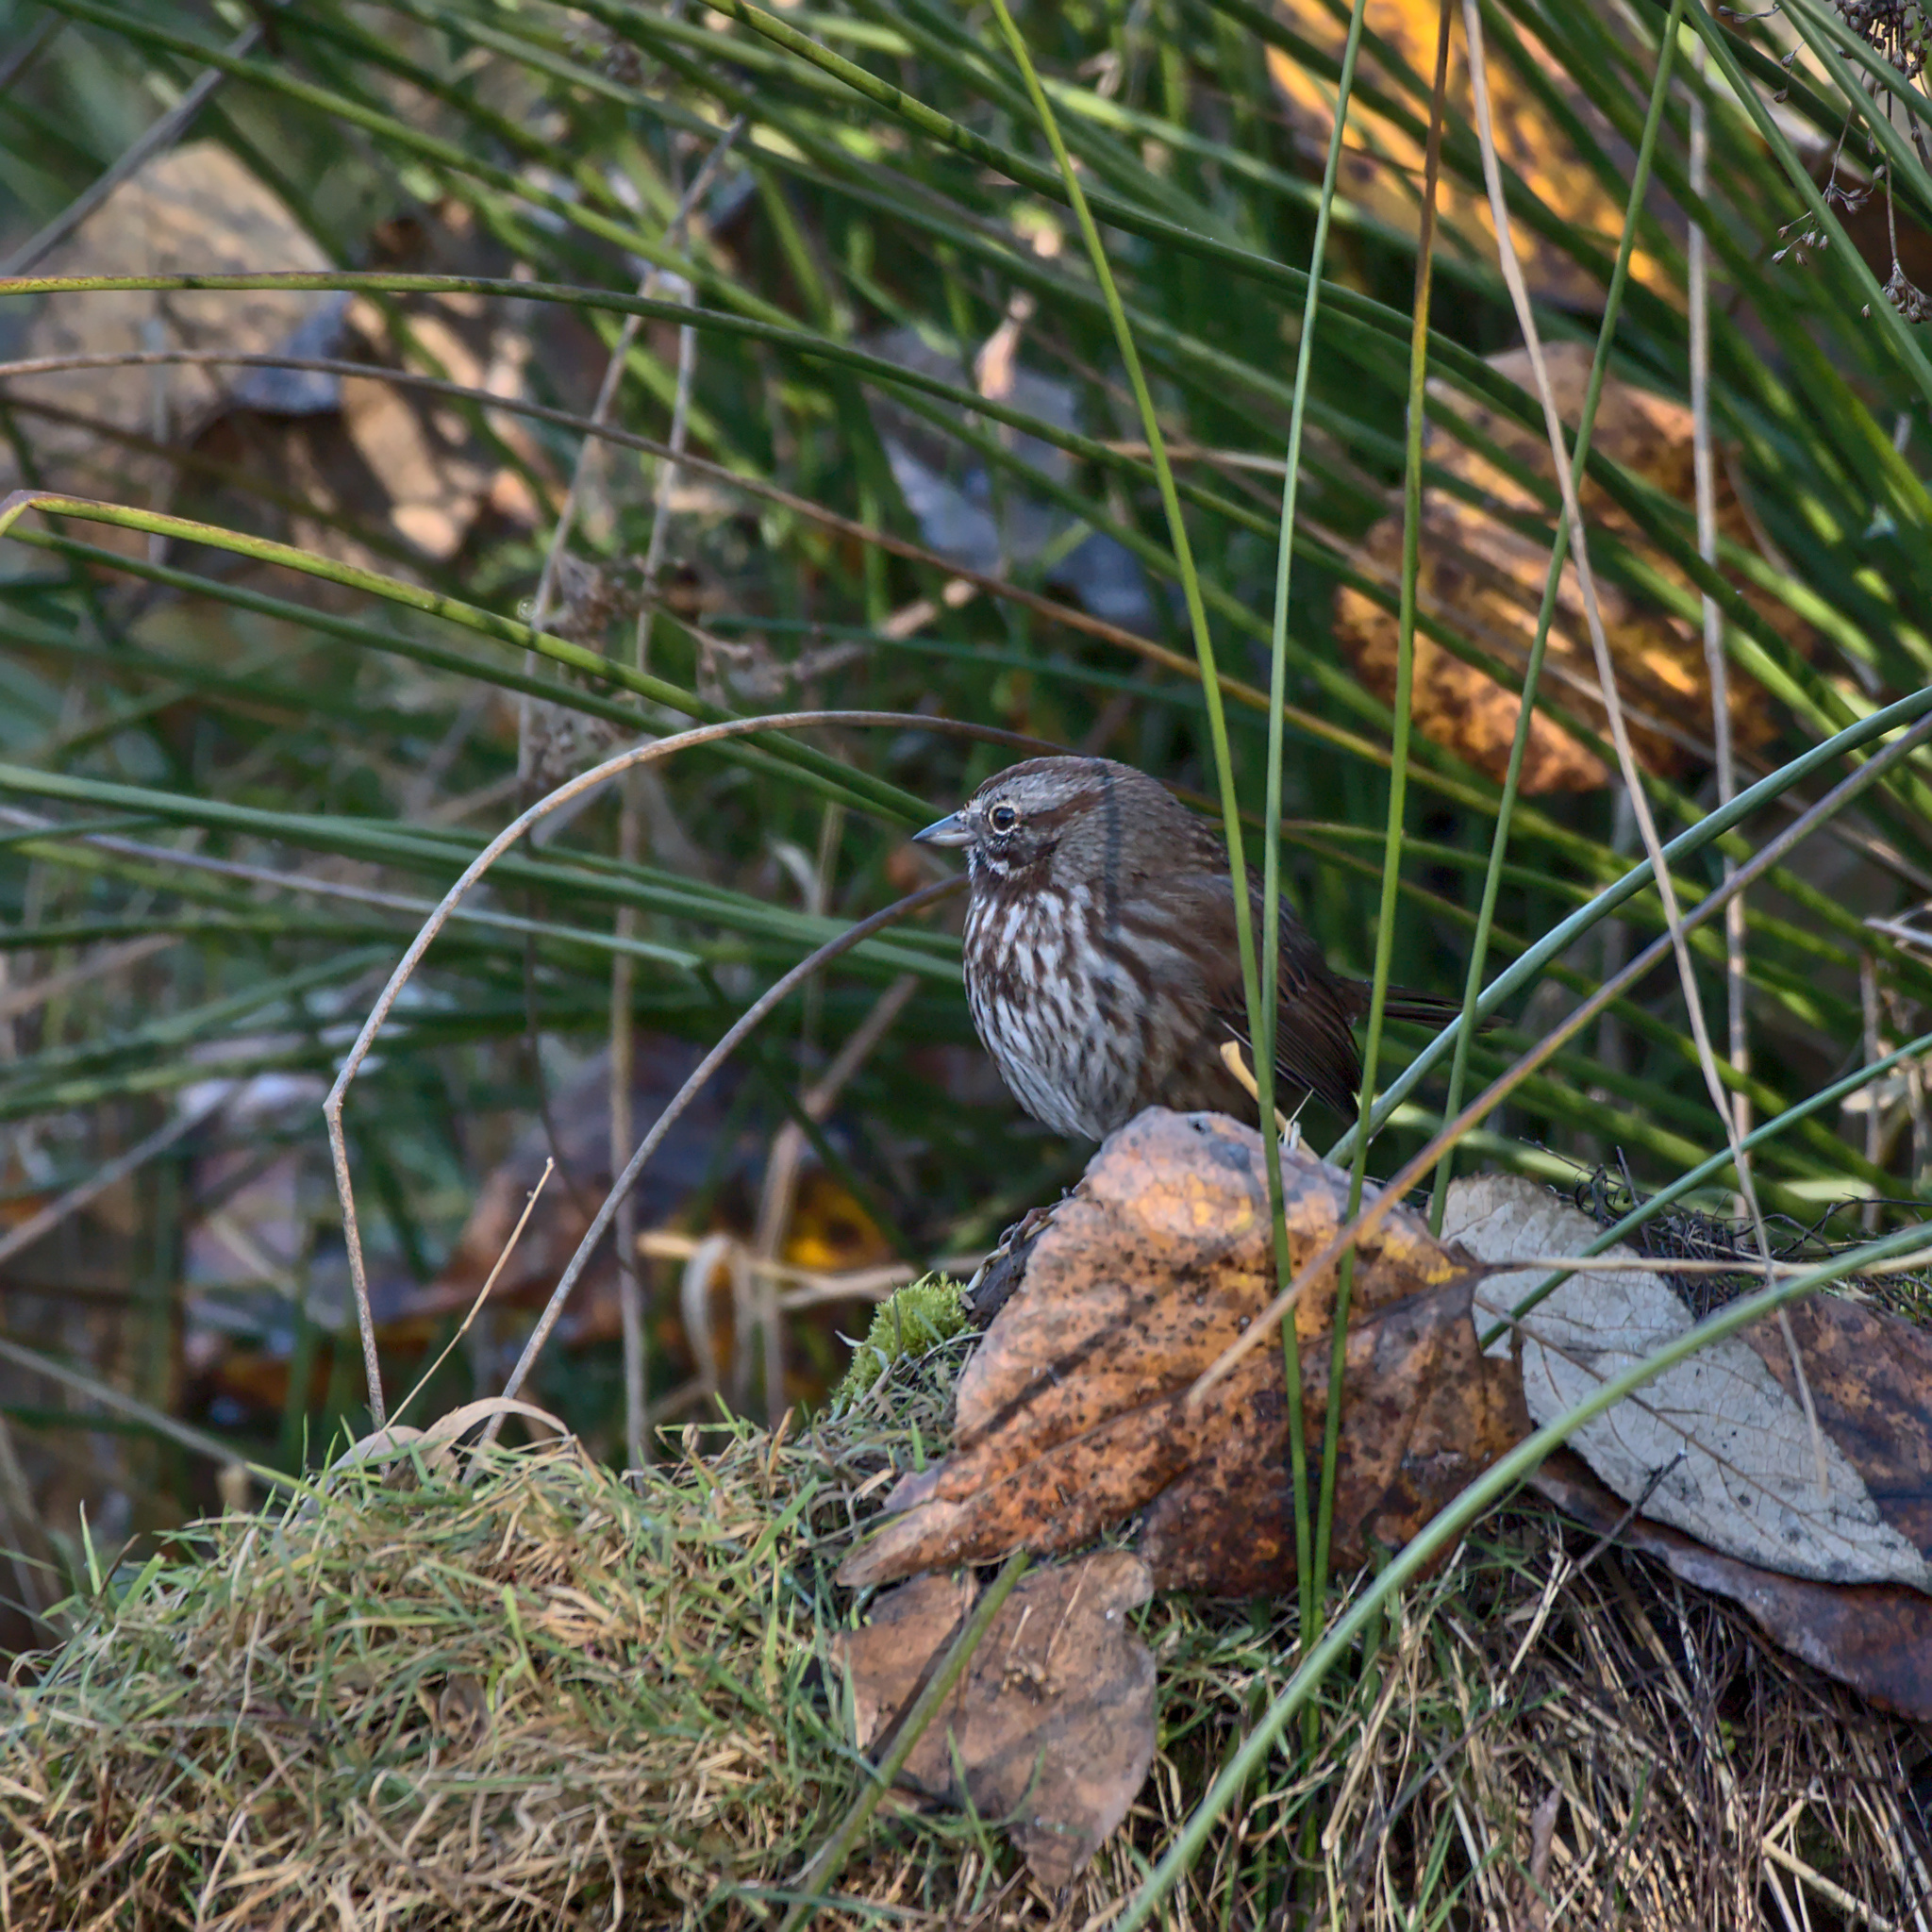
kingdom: Animalia
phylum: Chordata
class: Aves
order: Passeriformes
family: Passerellidae
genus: Melospiza
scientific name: Melospiza melodia
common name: Song sparrow
